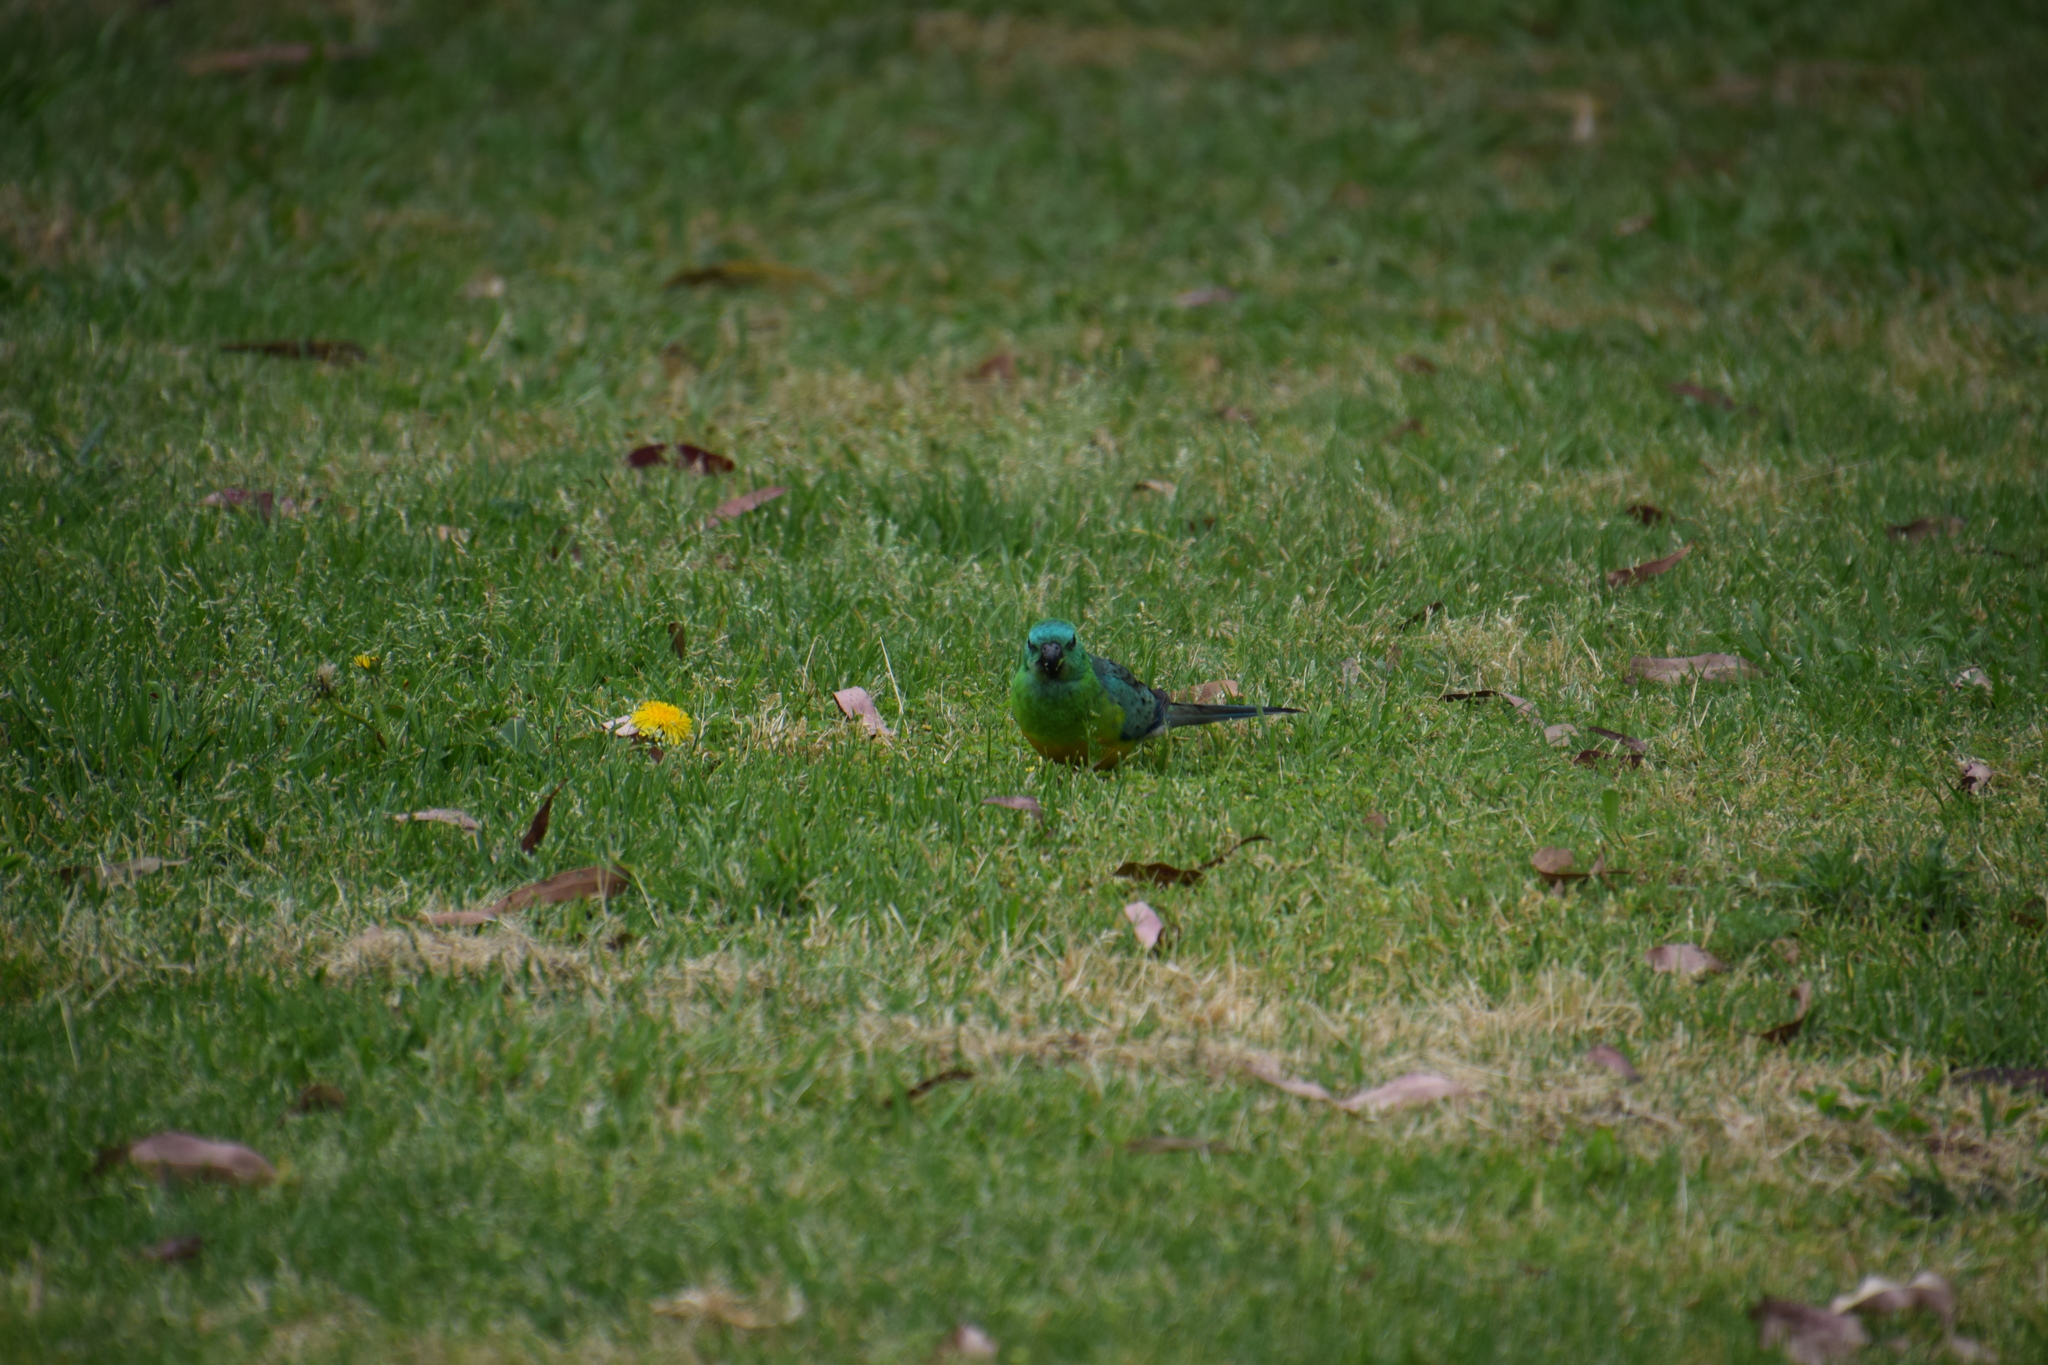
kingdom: Animalia
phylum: Chordata
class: Aves
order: Psittaciformes
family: Psittacidae
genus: Psephotus
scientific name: Psephotus haematonotus
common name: Red-rumped parrot
